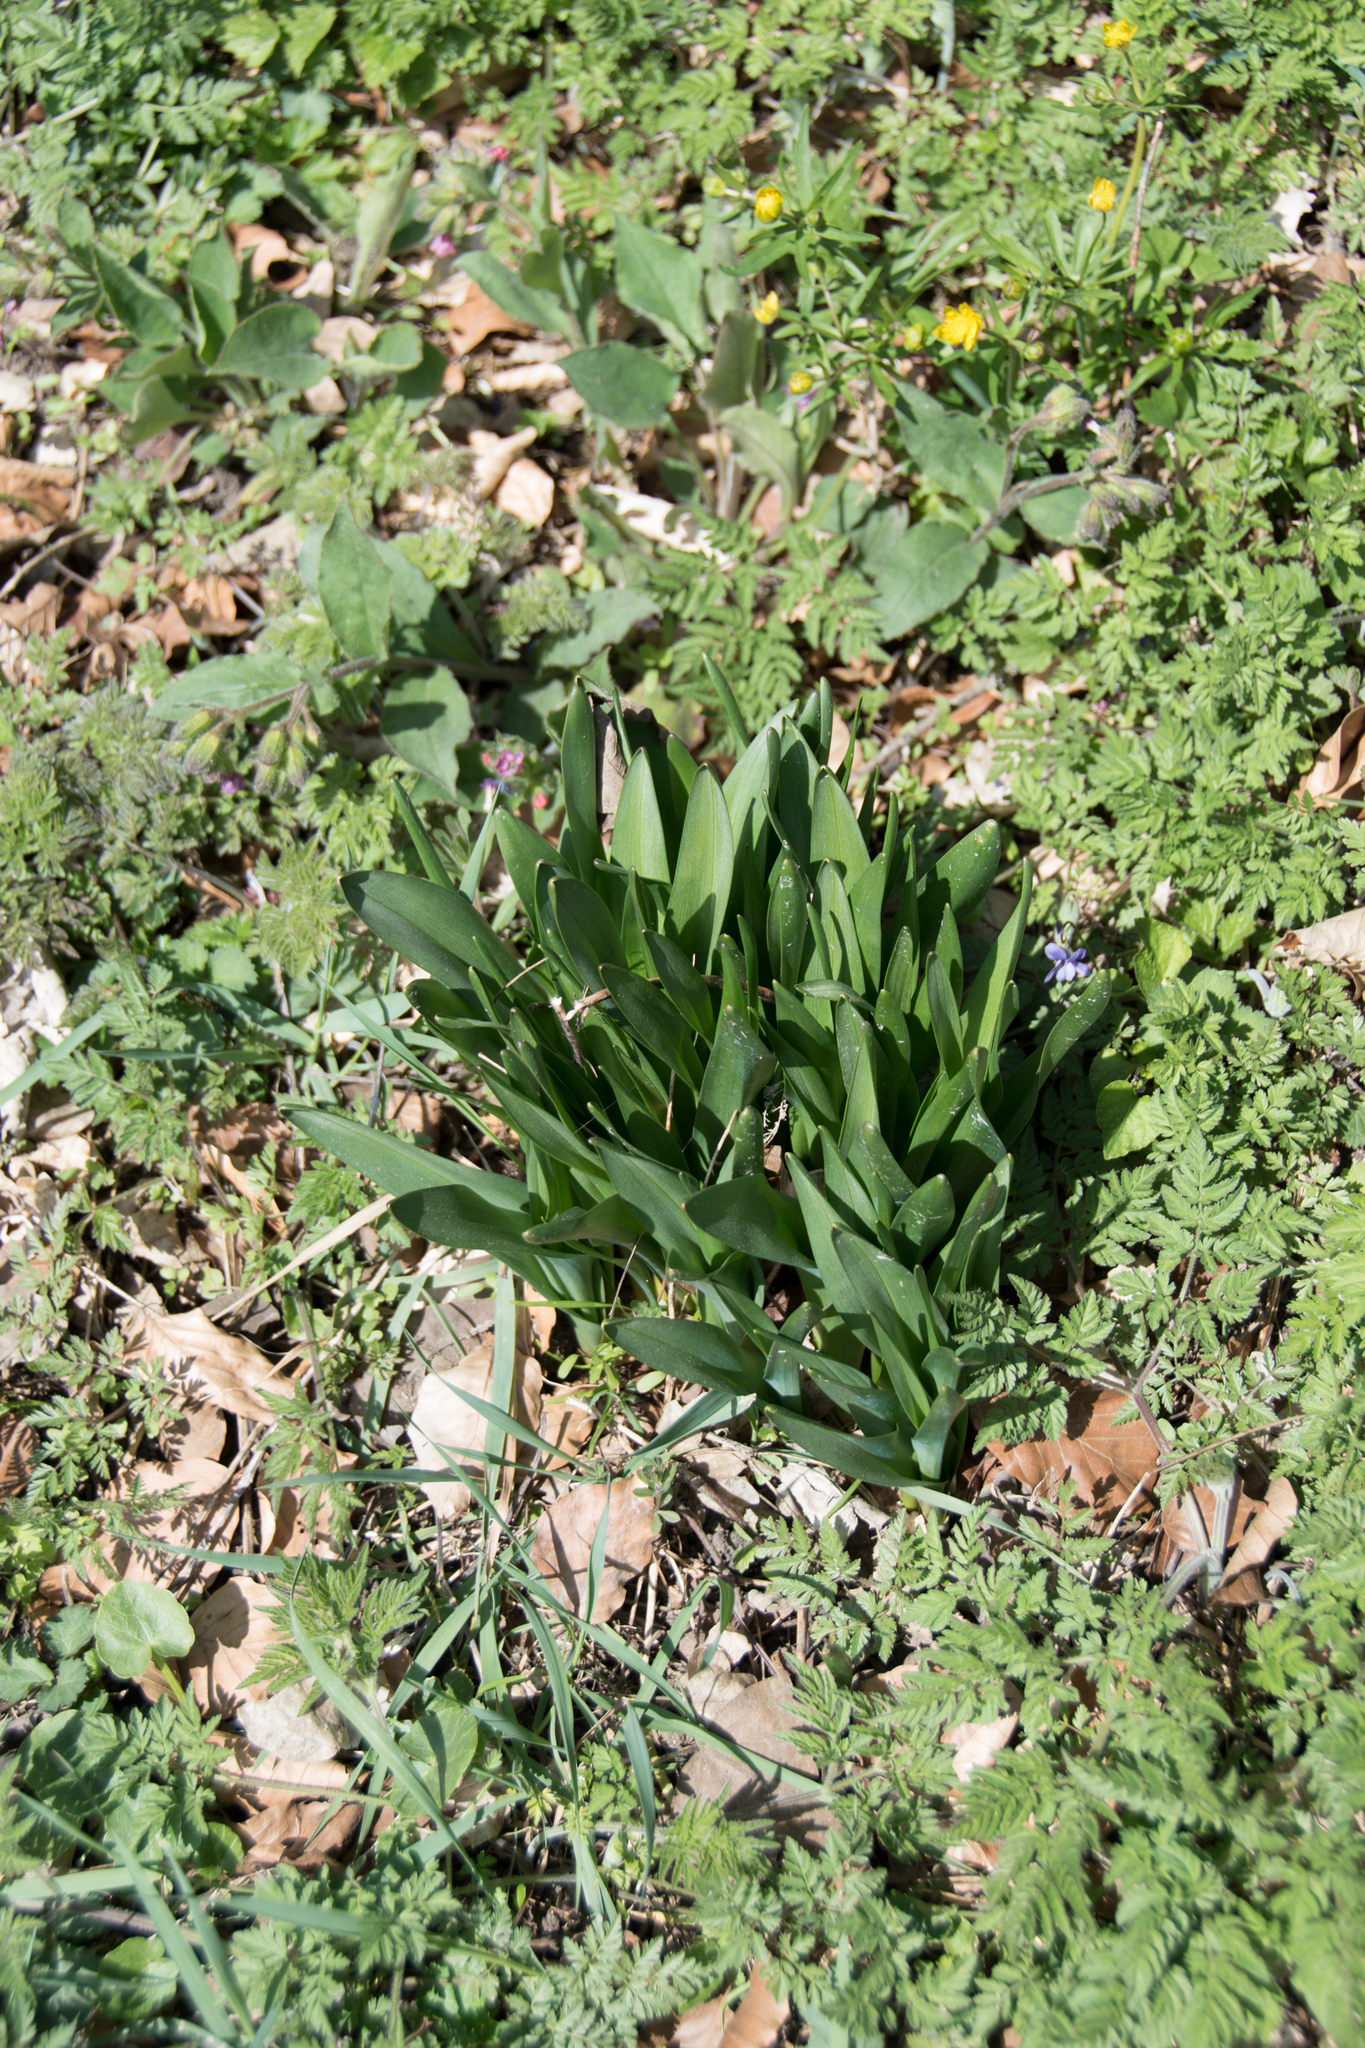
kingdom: Plantae
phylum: Tracheophyta
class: Liliopsida
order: Liliales
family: Colchicaceae
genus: Colchicum
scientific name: Colchicum autumnale
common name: Autumn crocus
